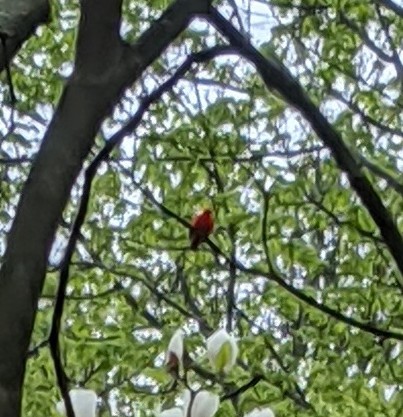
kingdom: Animalia
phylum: Chordata
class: Aves
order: Passeriformes
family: Cardinalidae
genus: Piranga
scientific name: Piranga olivacea
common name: Scarlet tanager
